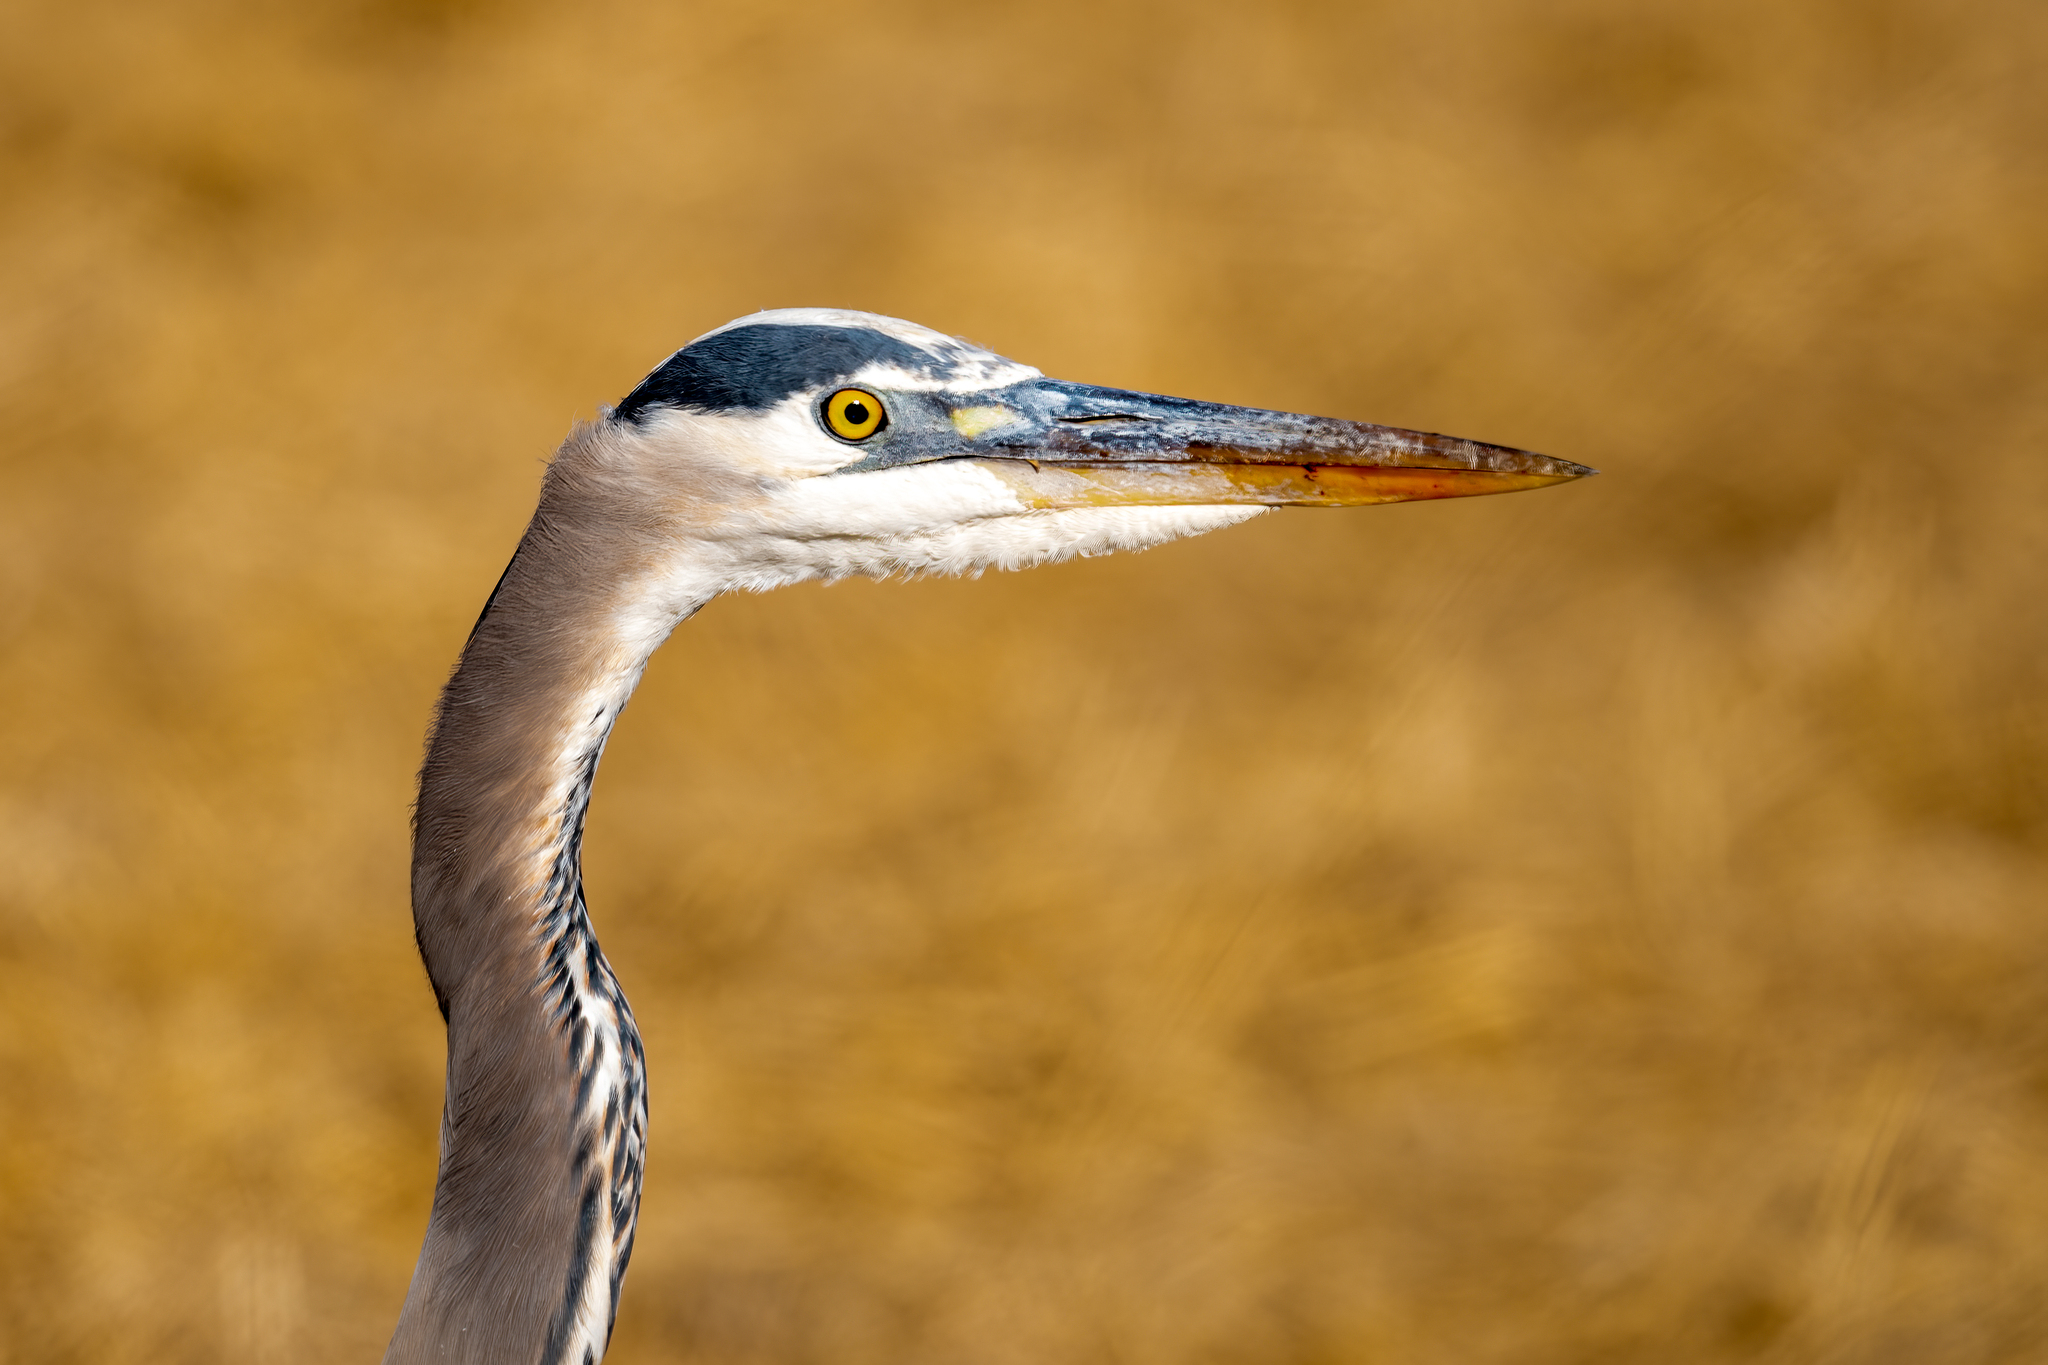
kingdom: Animalia
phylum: Chordata
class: Aves
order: Pelecaniformes
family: Ardeidae
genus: Ardea
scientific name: Ardea herodias
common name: Great blue heron
